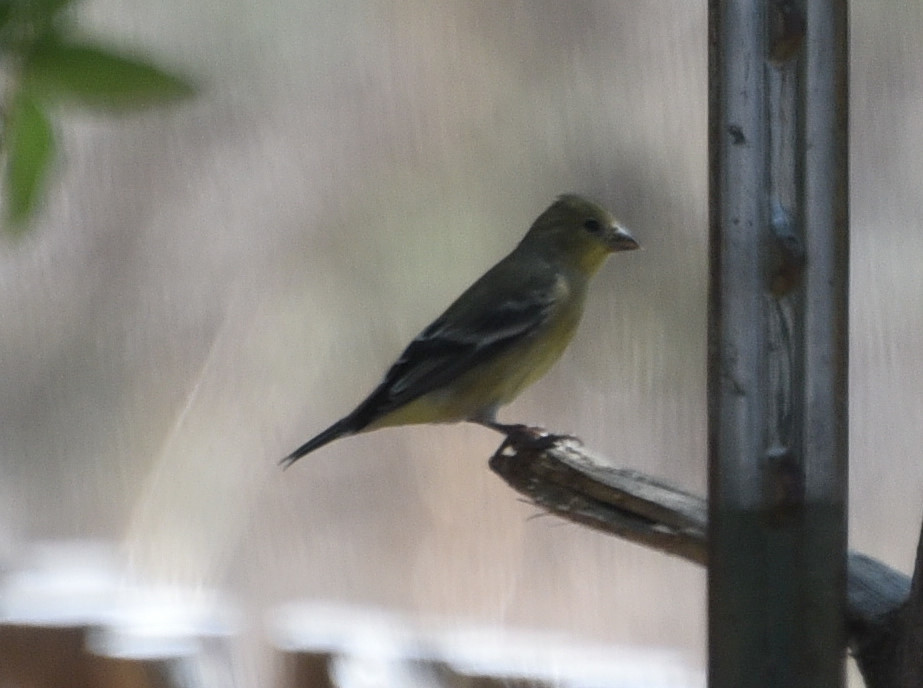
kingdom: Animalia
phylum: Chordata
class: Aves
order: Passeriformes
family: Fringillidae
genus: Spinus
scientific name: Spinus psaltria
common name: Lesser goldfinch
